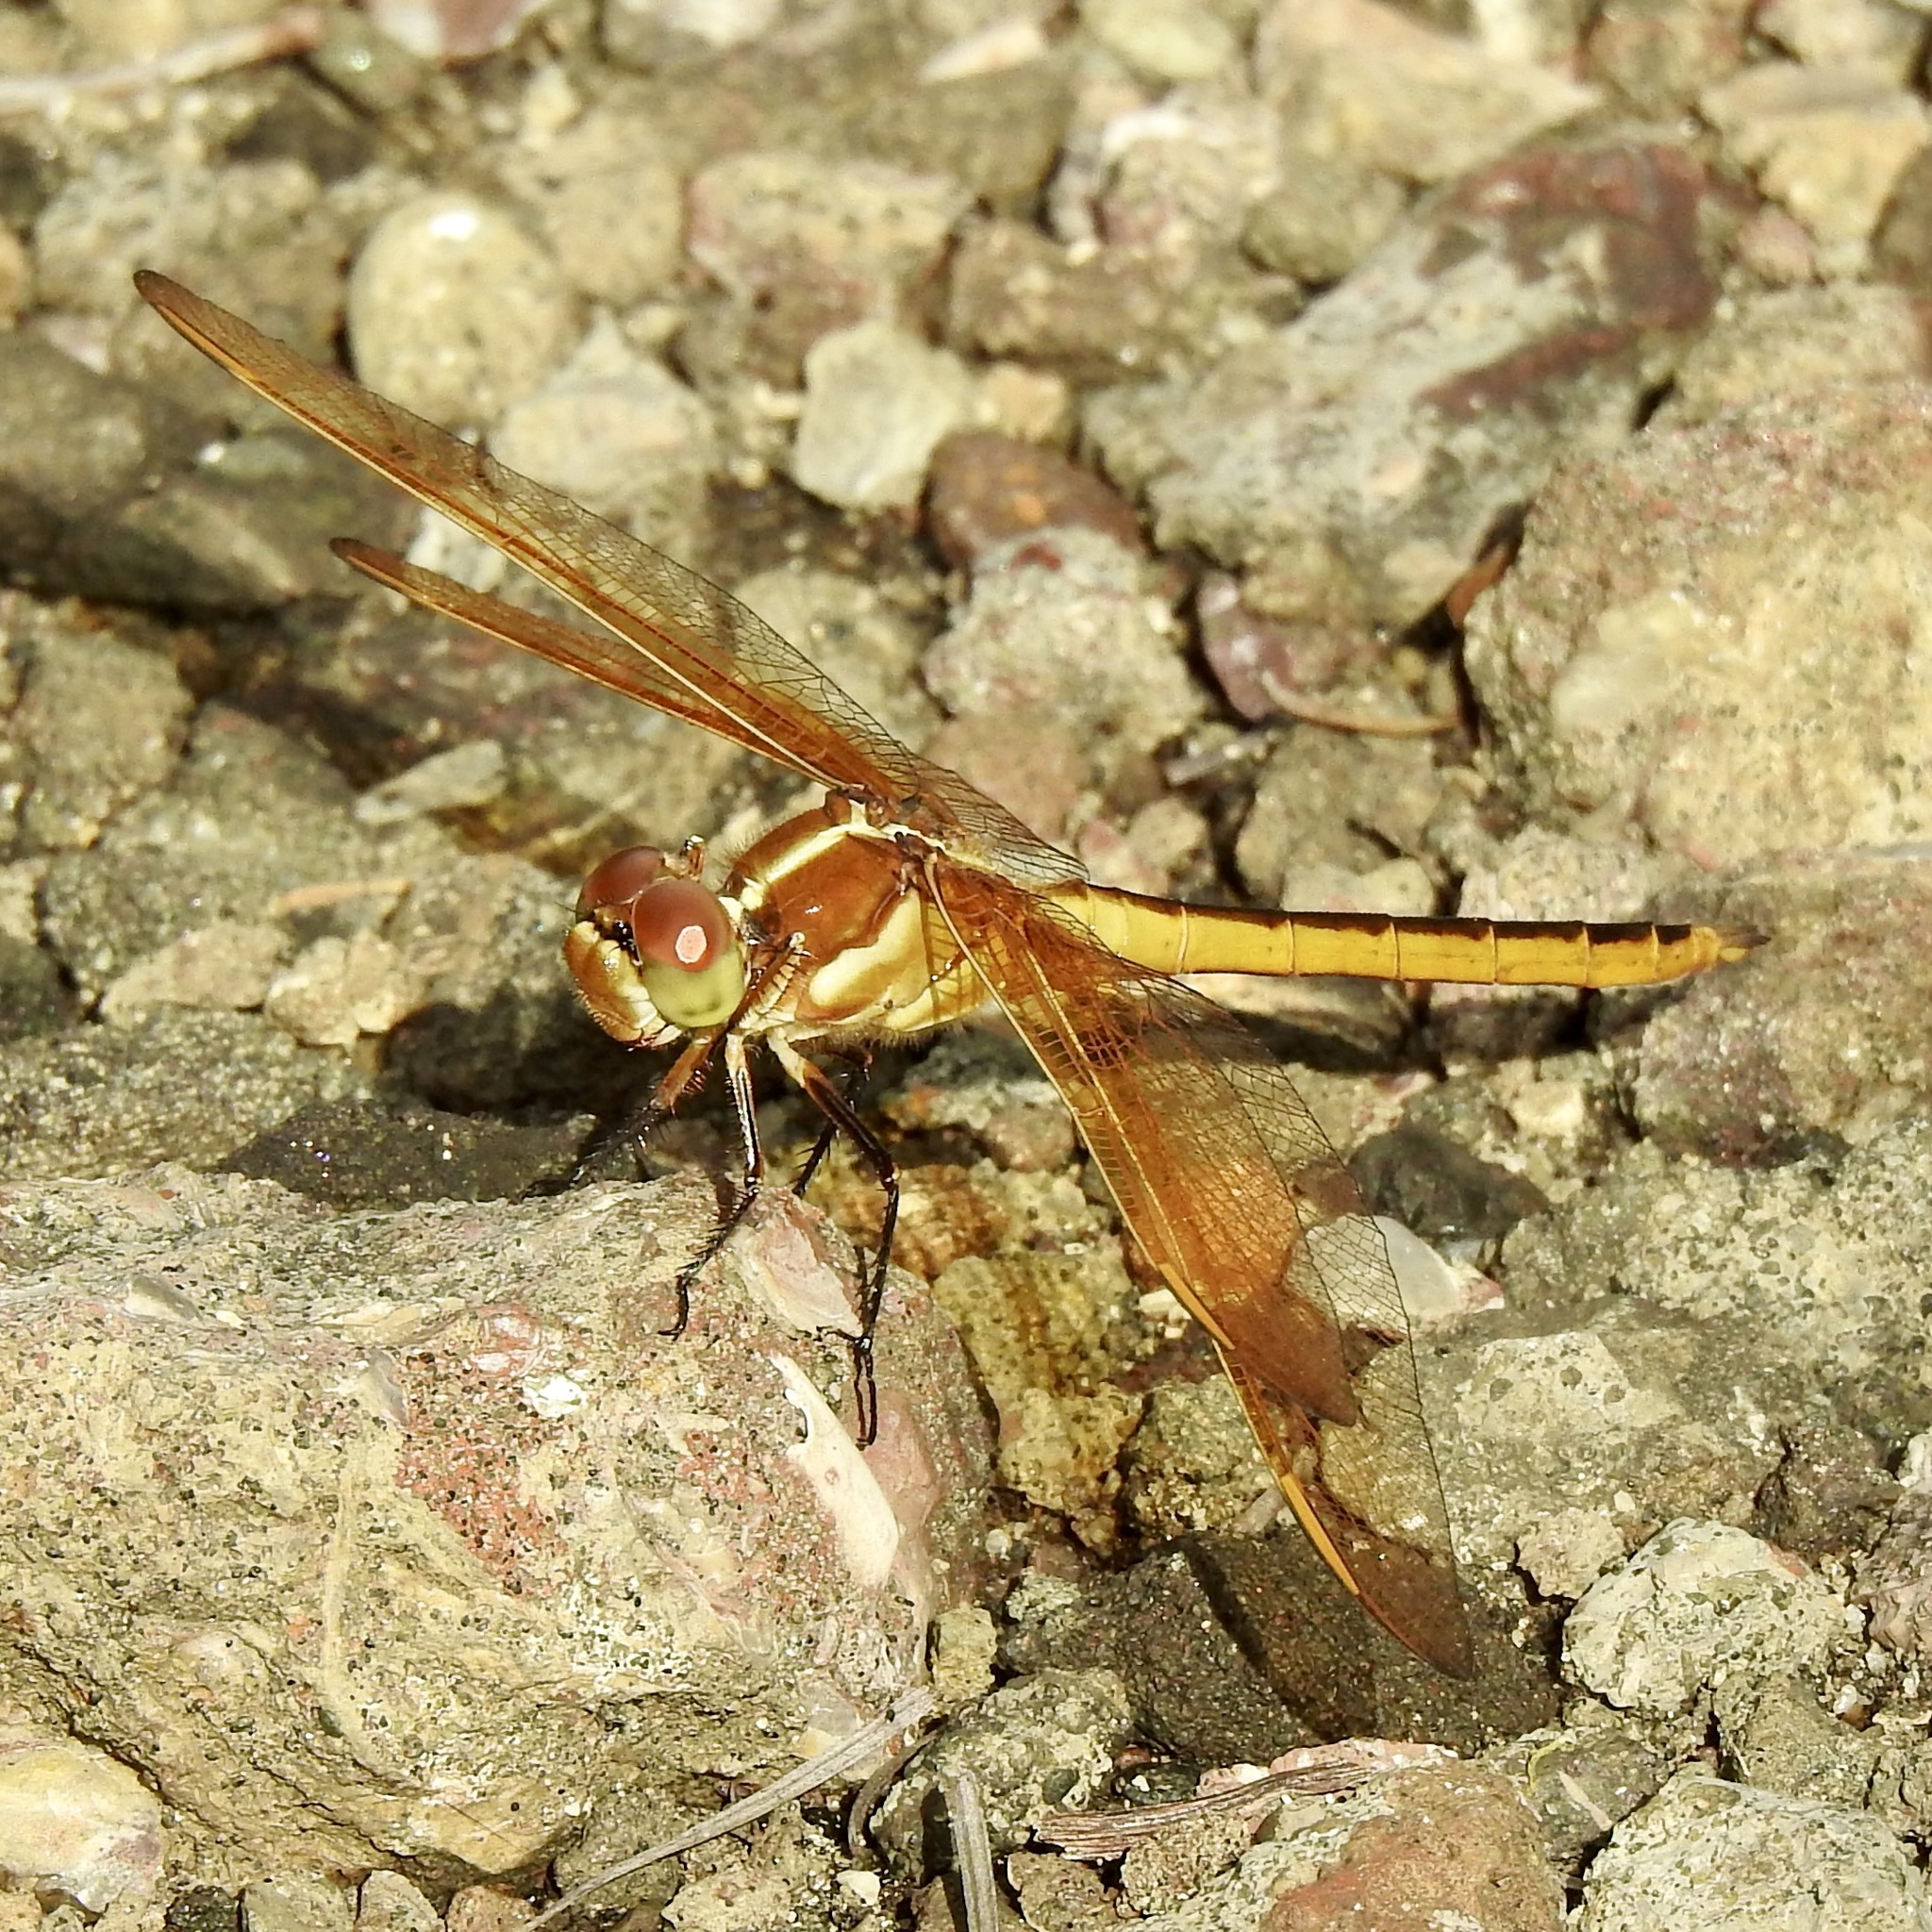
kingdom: Animalia
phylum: Arthropoda
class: Insecta
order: Odonata
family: Libellulidae
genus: Libellula
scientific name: Libellula auripennis
